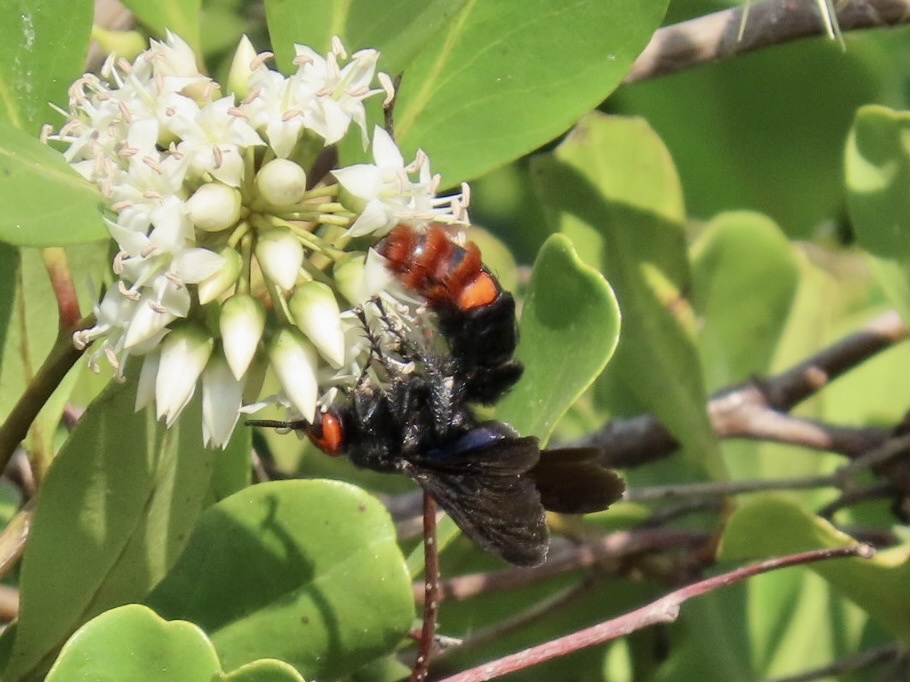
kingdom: Animalia
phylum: Arthropoda
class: Insecta
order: Hymenoptera
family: Scoliidae
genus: Megascolia
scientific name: Megascolia azurea
